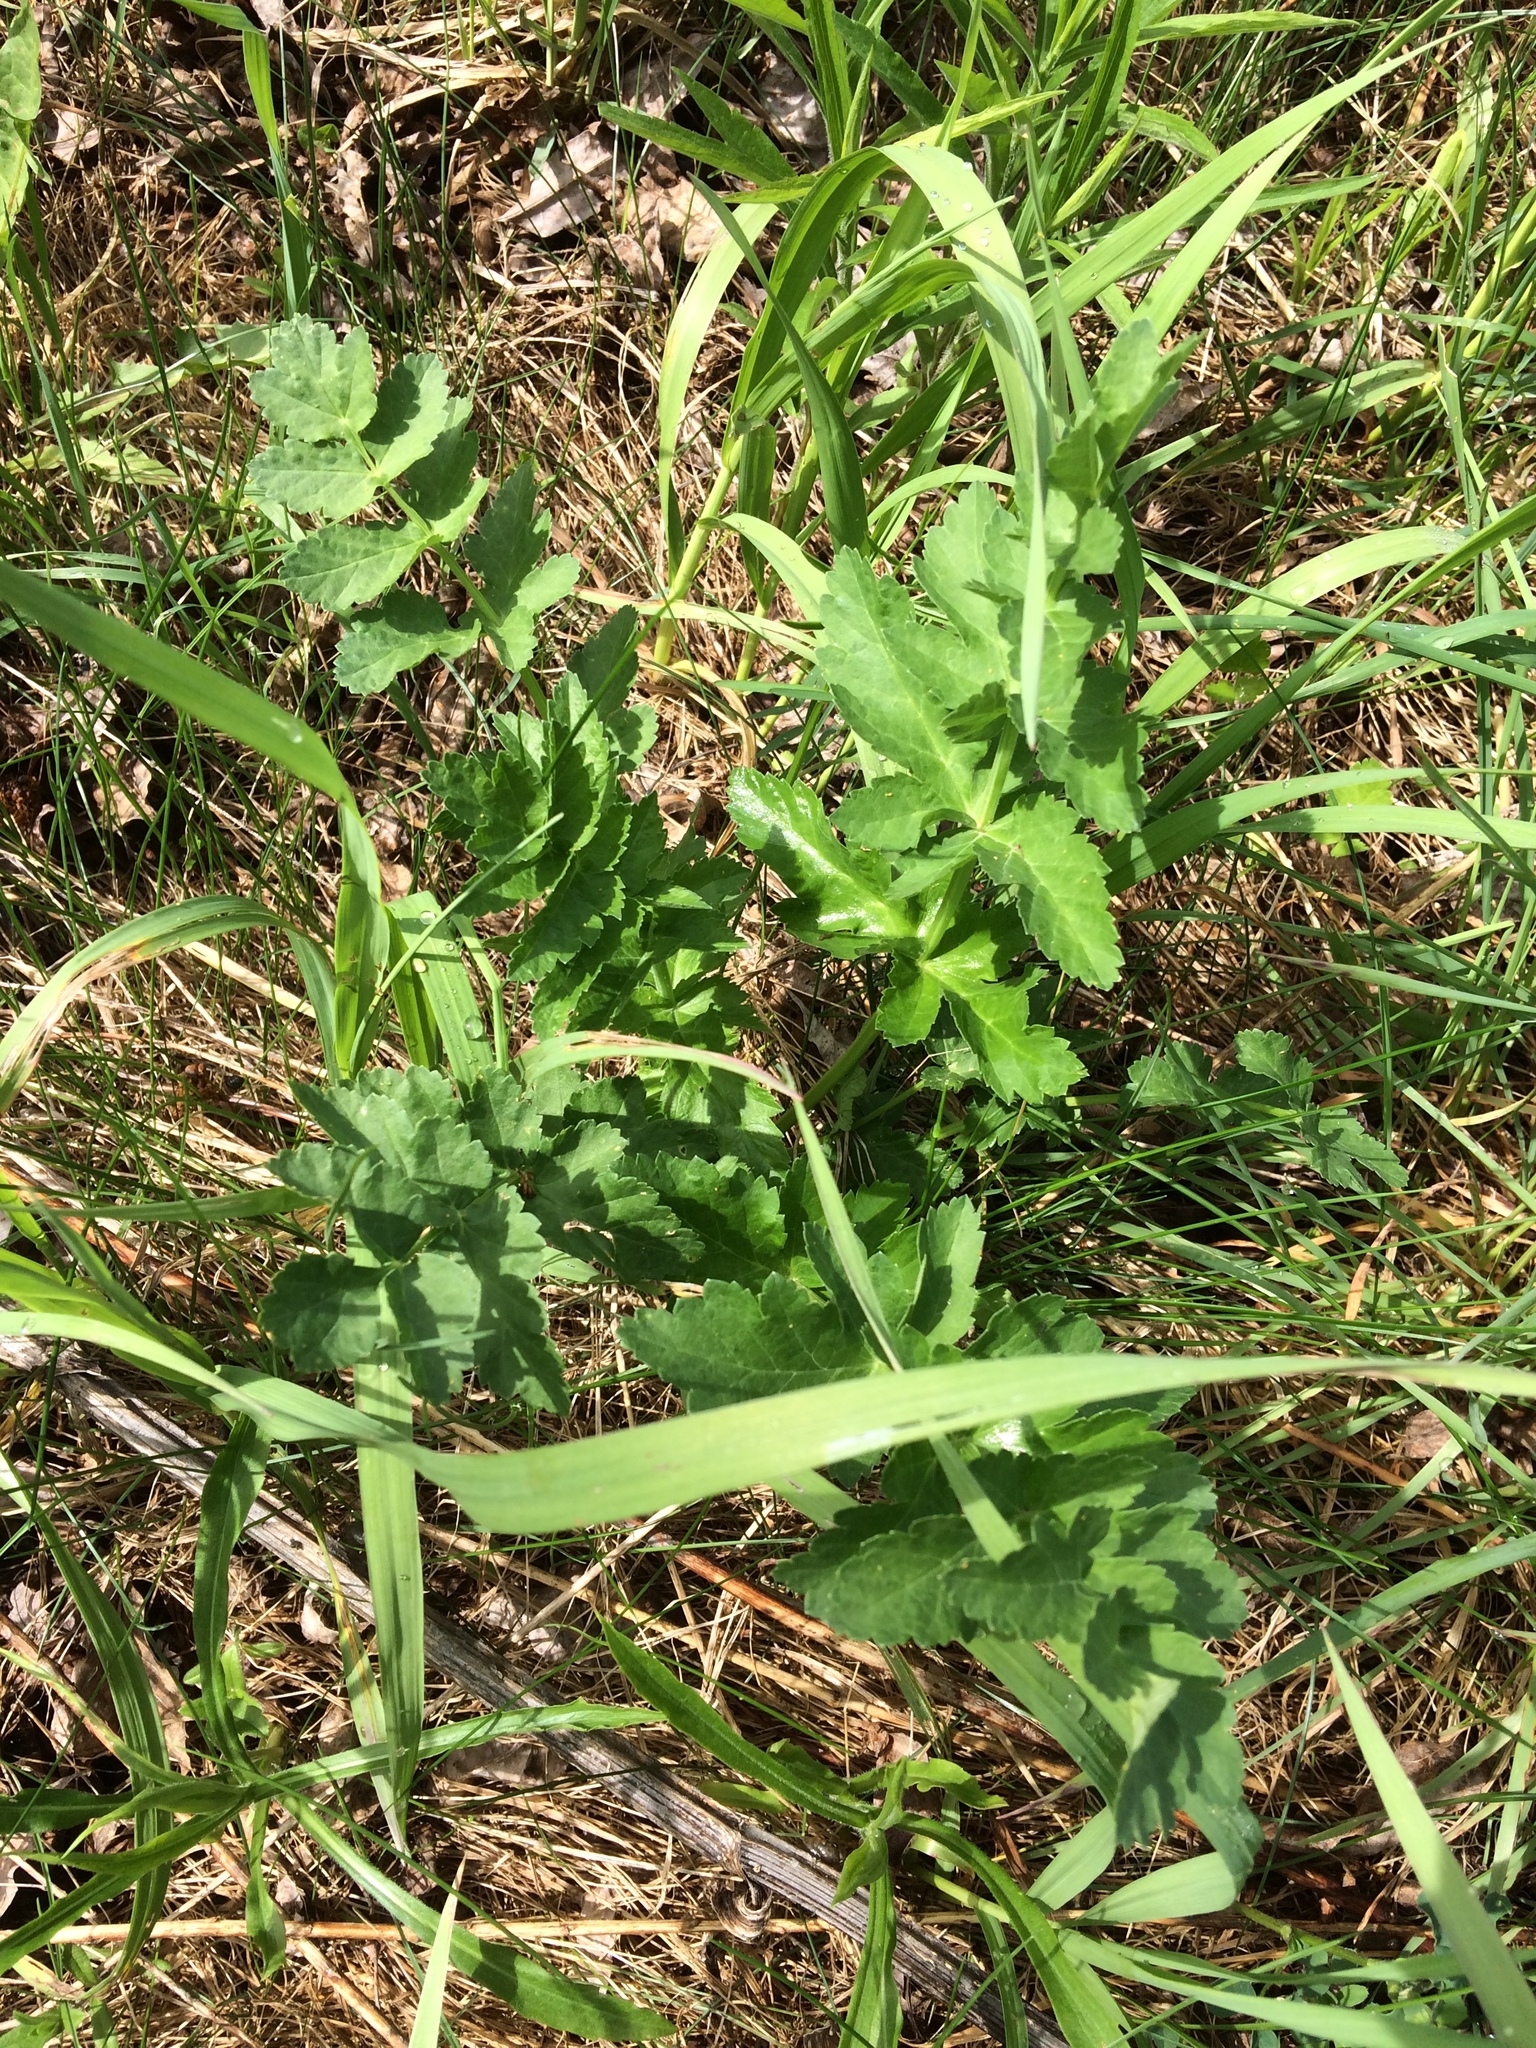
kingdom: Plantae
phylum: Tracheophyta
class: Magnoliopsida
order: Apiales
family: Apiaceae
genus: Pastinaca
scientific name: Pastinaca sativa
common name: Wild parsnip
